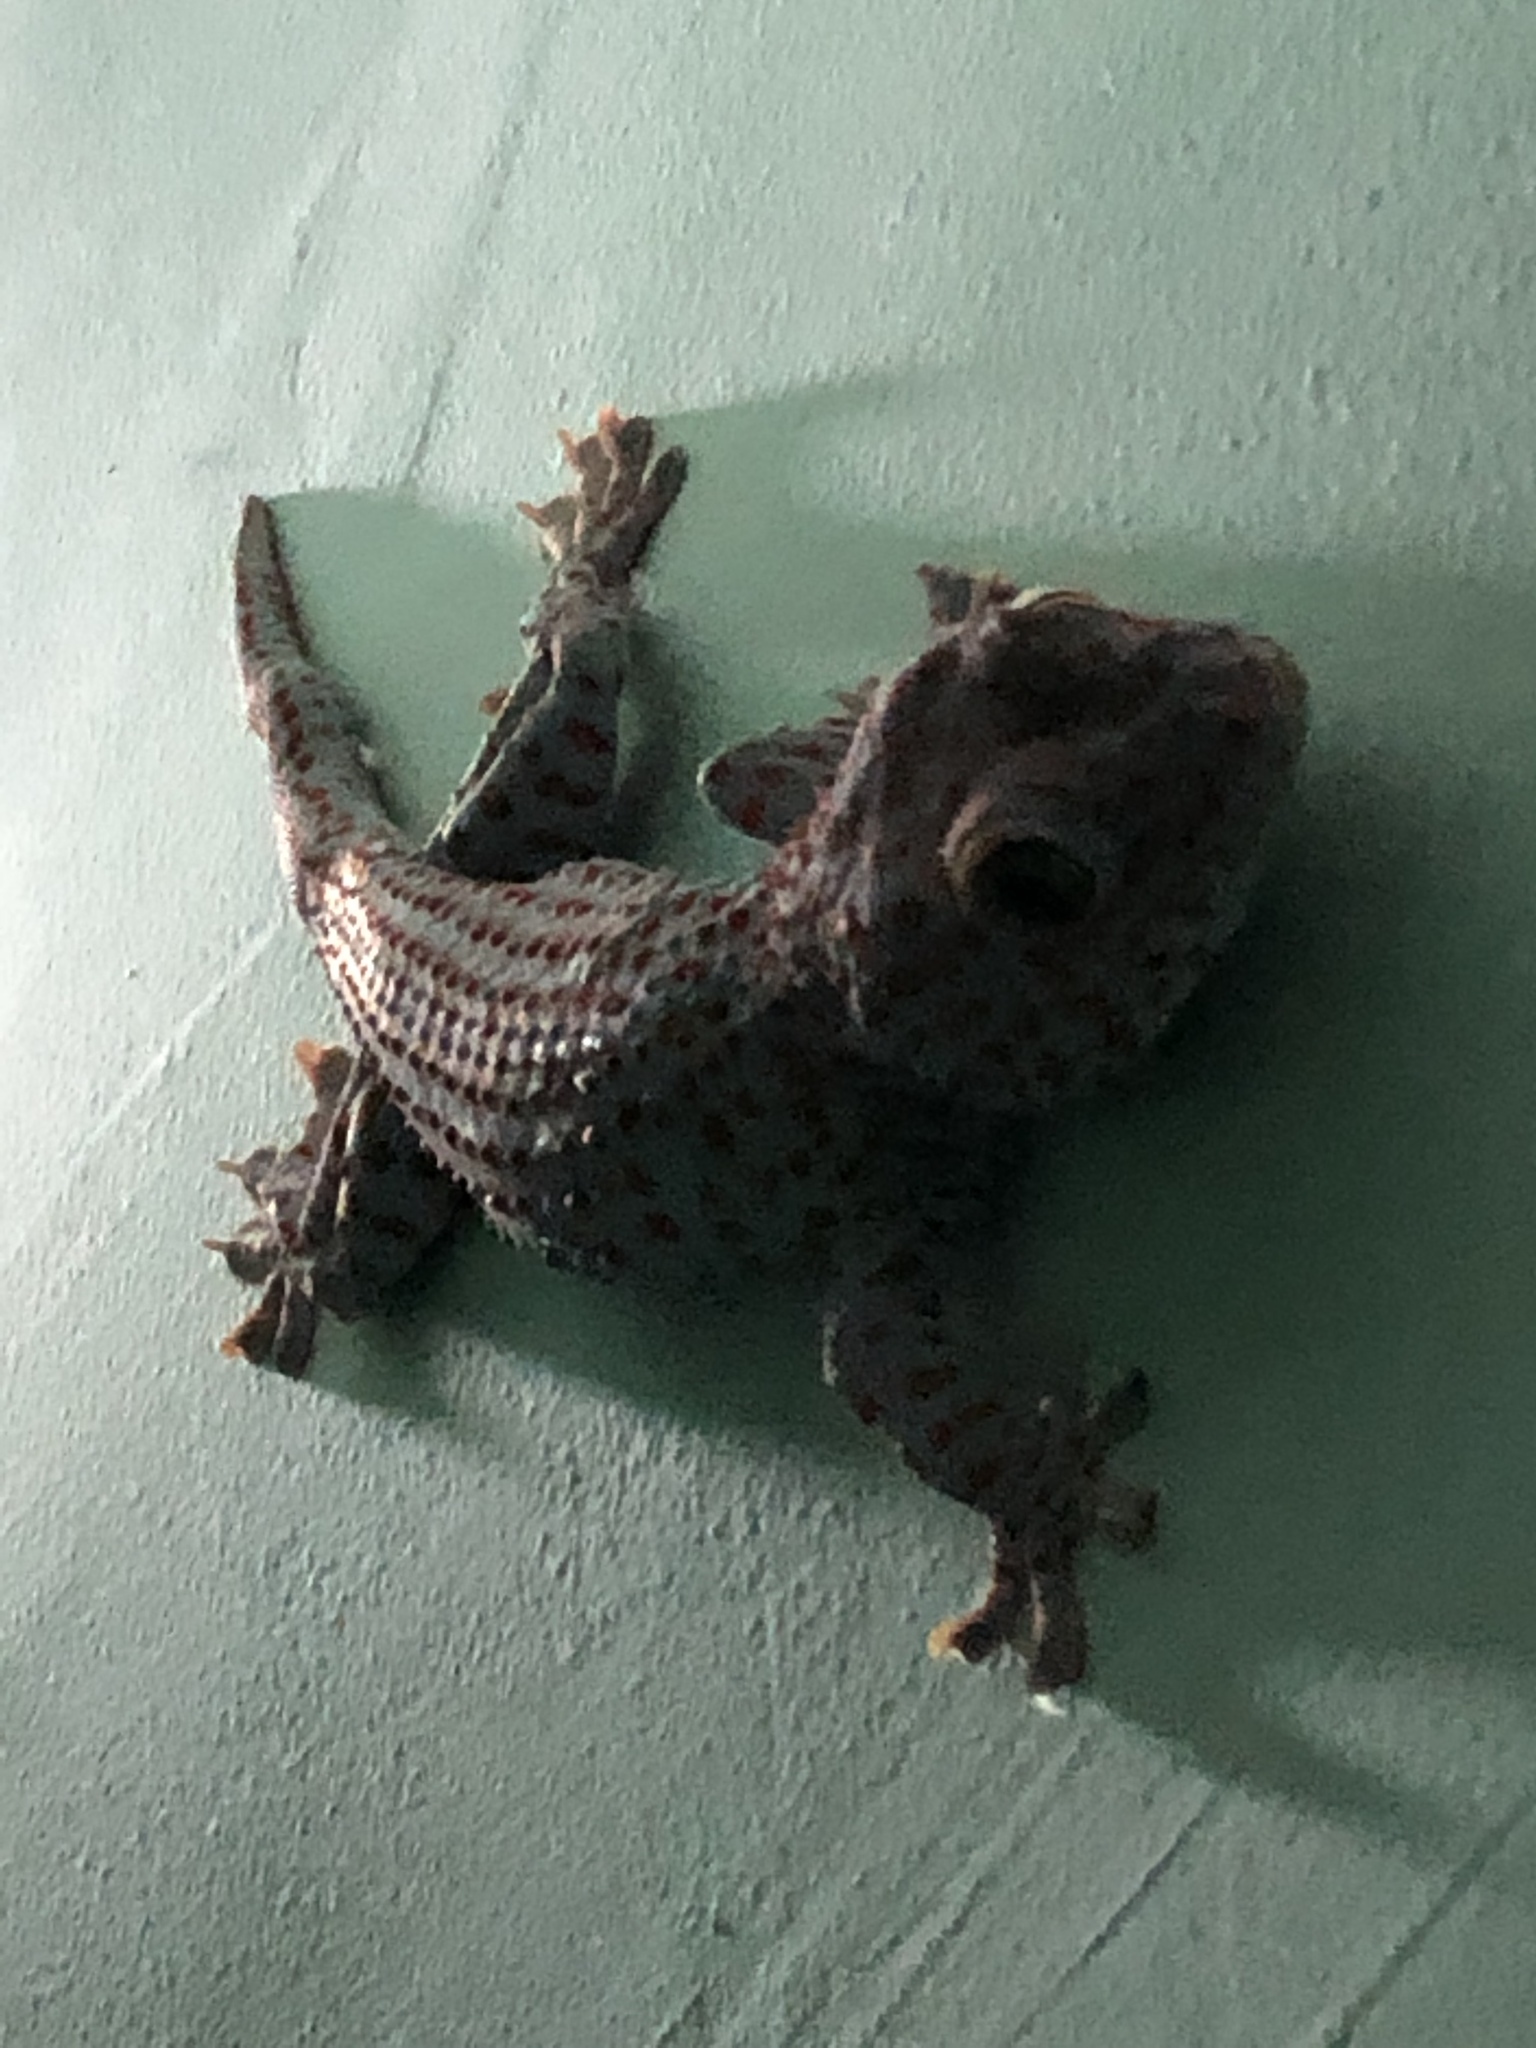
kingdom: Animalia
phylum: Chordata
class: Squamata
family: Gekkonidae
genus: Gekko
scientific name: Gekko gecko
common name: Tokay gecko
